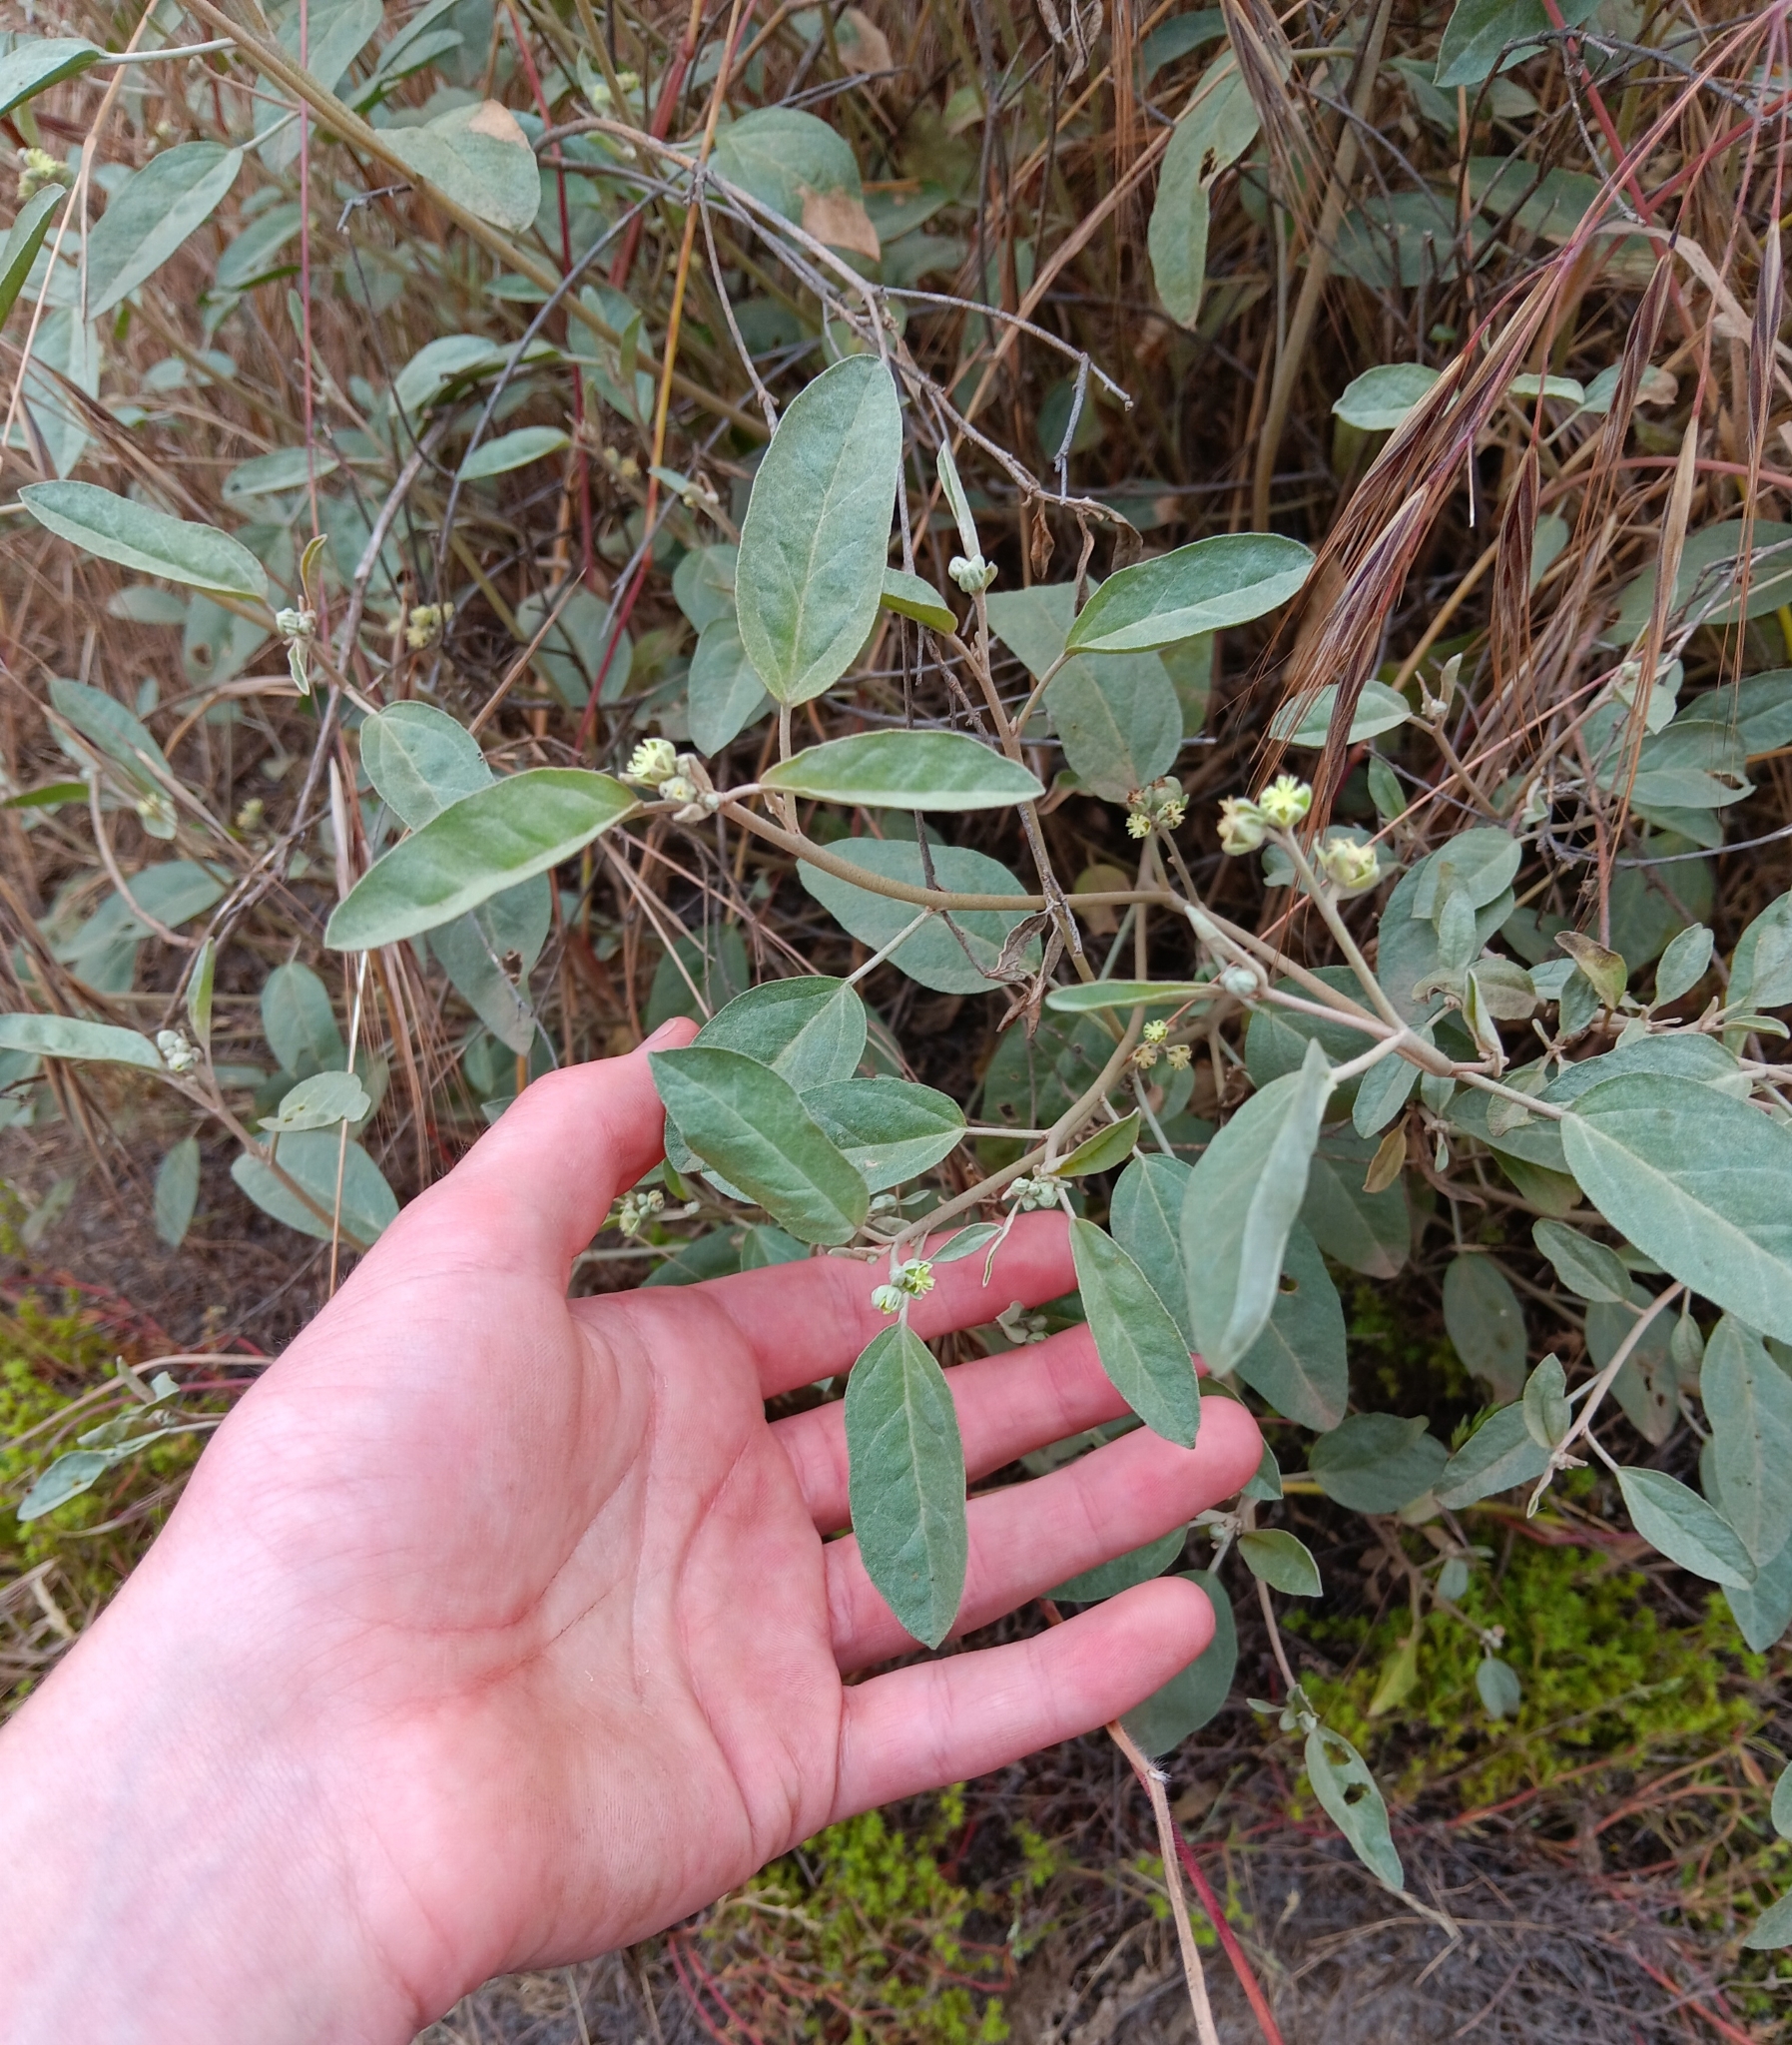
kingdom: Plantae
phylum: Tracheophyta
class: Magnoliopsida
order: Malpighiales
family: Euphorbiaceae
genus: Croton
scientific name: Croton californicus
